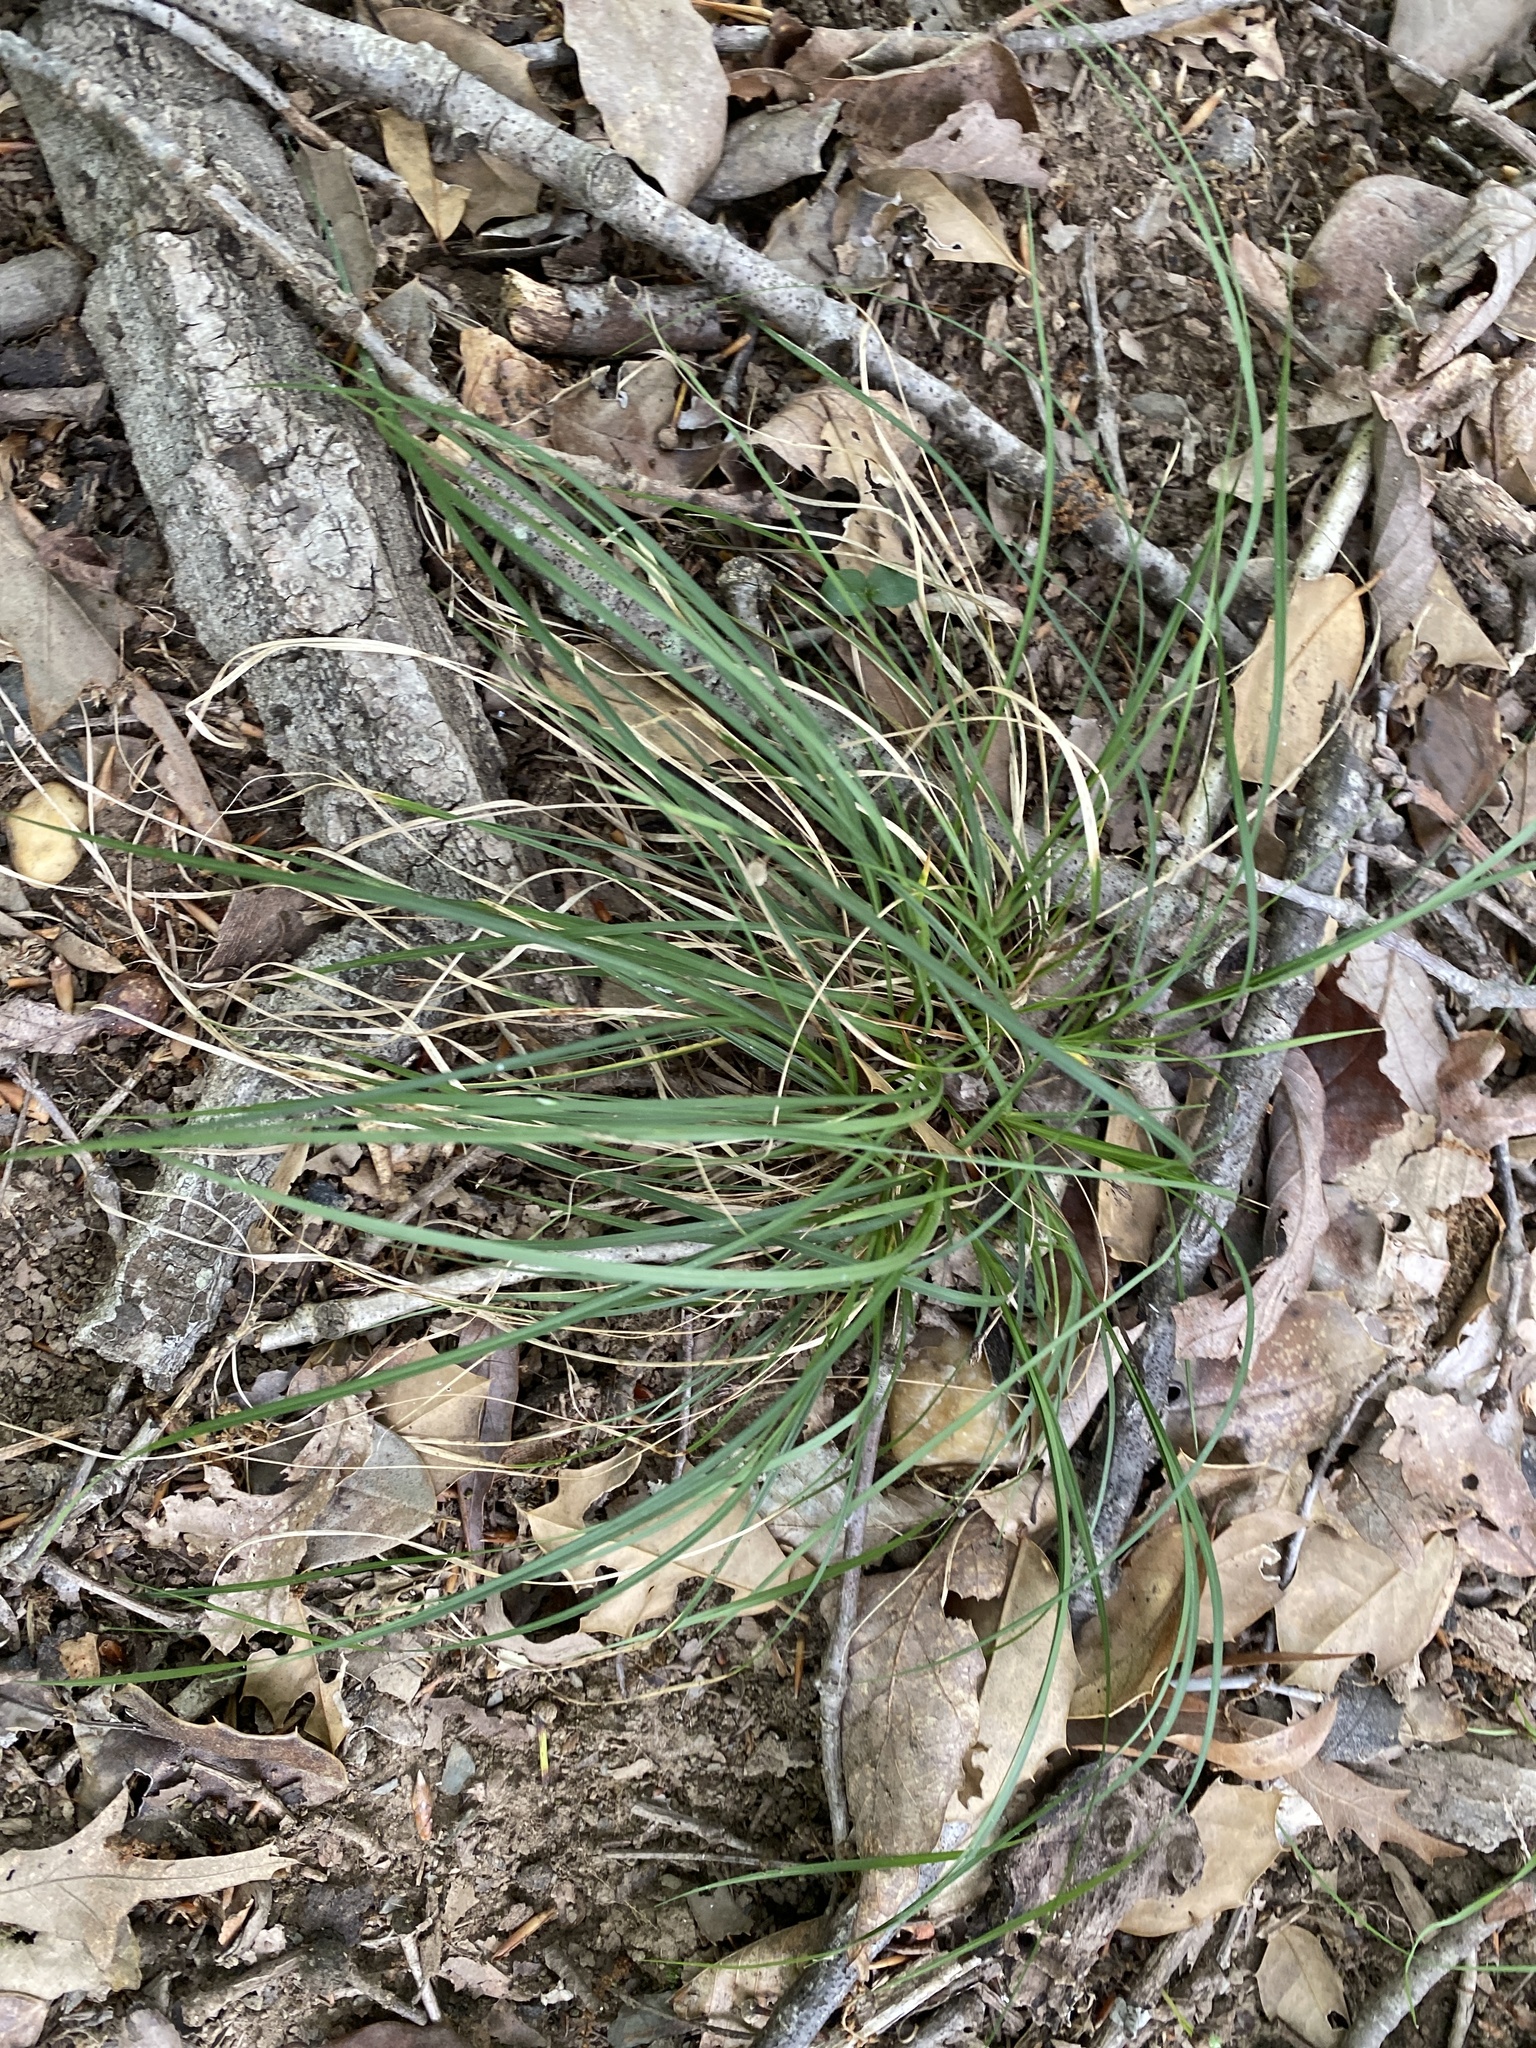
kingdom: Plantae
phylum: Tracheophyta
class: Liliopsida
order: Poales
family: Poaceae
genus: Danthonia
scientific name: Danthonia spicata
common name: Common wild oatgrass
